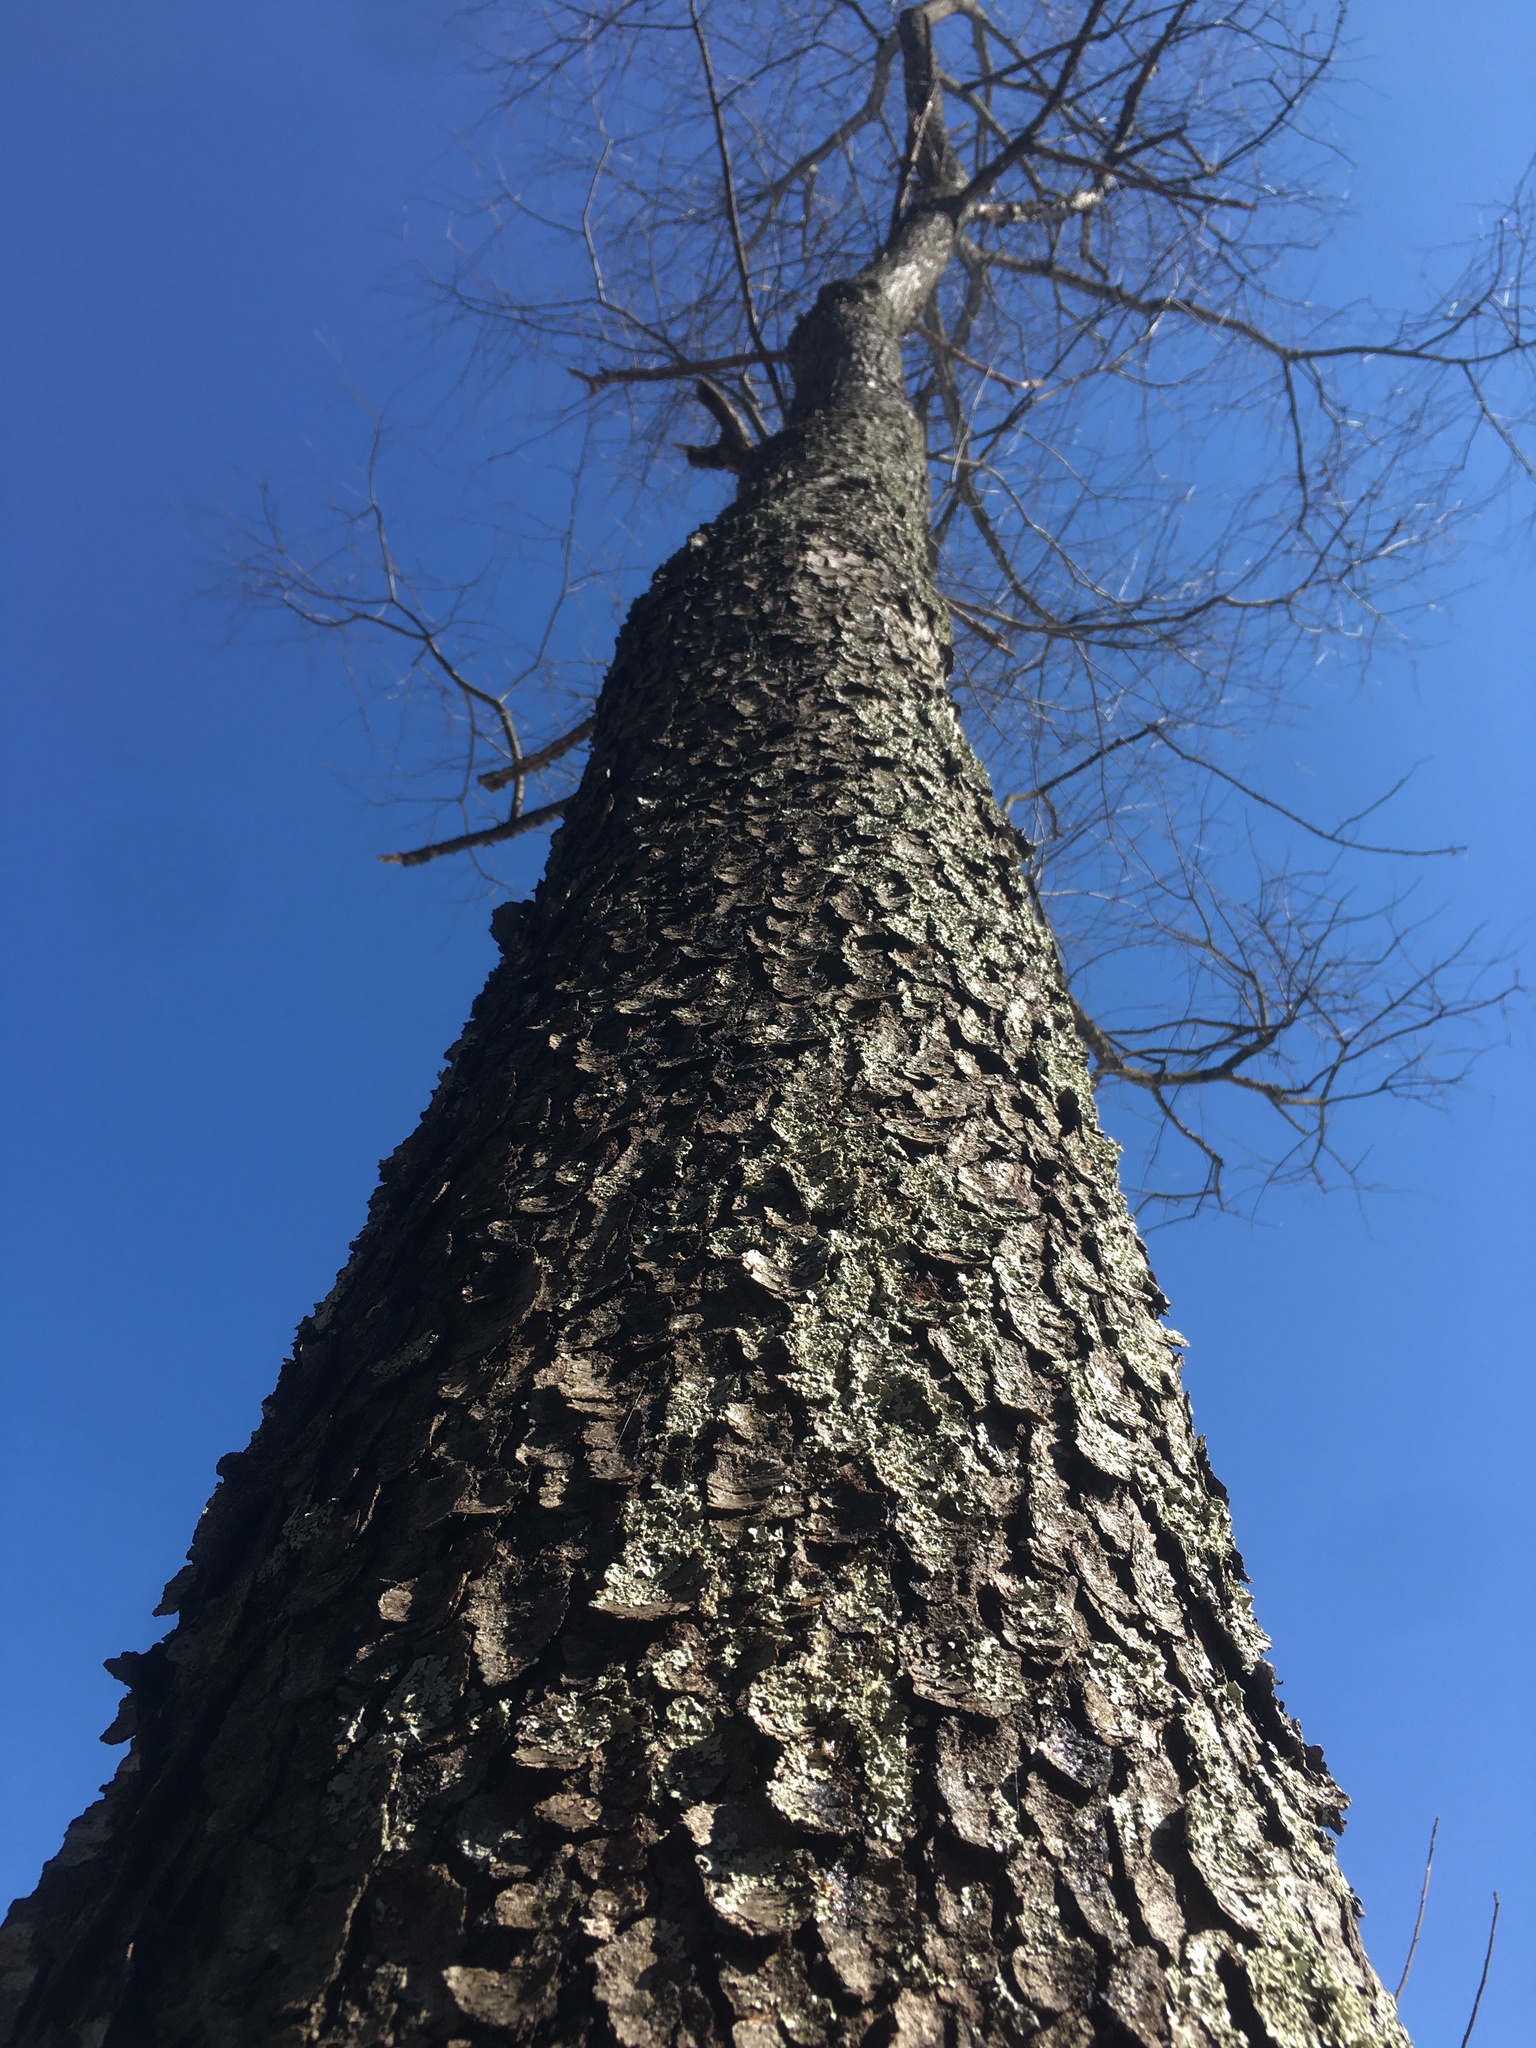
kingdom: Plantae
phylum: Tracheophyta
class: Magnoliopsida
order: Rosales
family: Rosaceae
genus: Prunus
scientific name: Prunus serotina
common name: Black cherry
